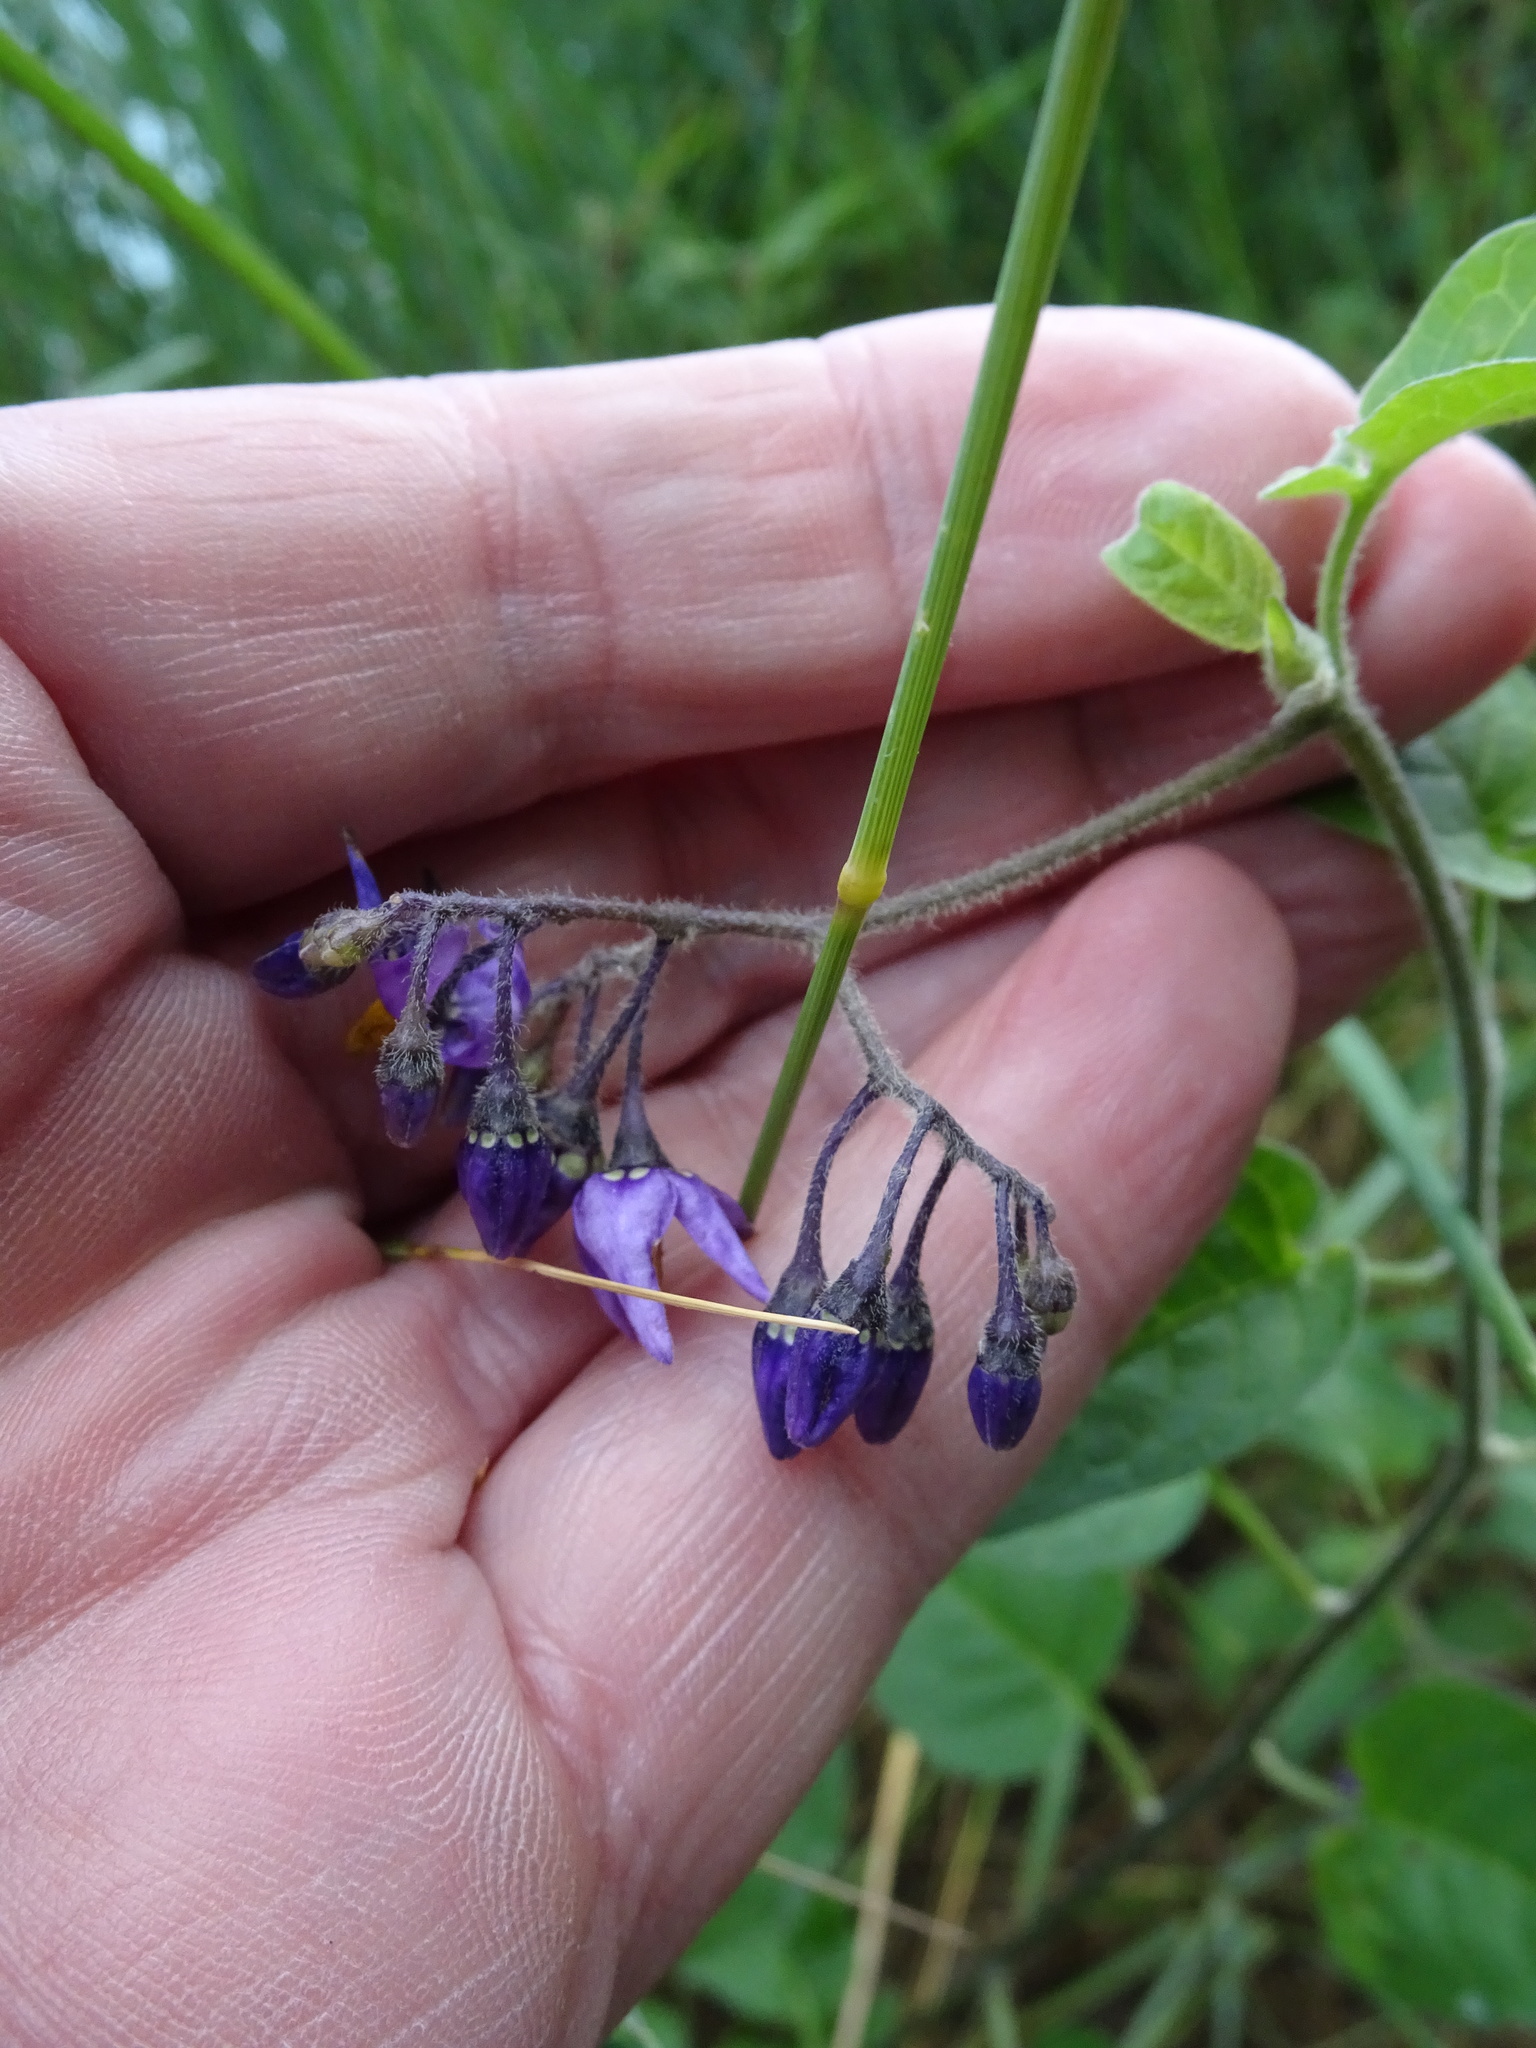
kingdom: Plantae
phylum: Tracheophyta
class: Magnoliopsida
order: Solanales
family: Solanaceae
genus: Solanum
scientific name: Solanum dulcamara
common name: Climbing nightshade
